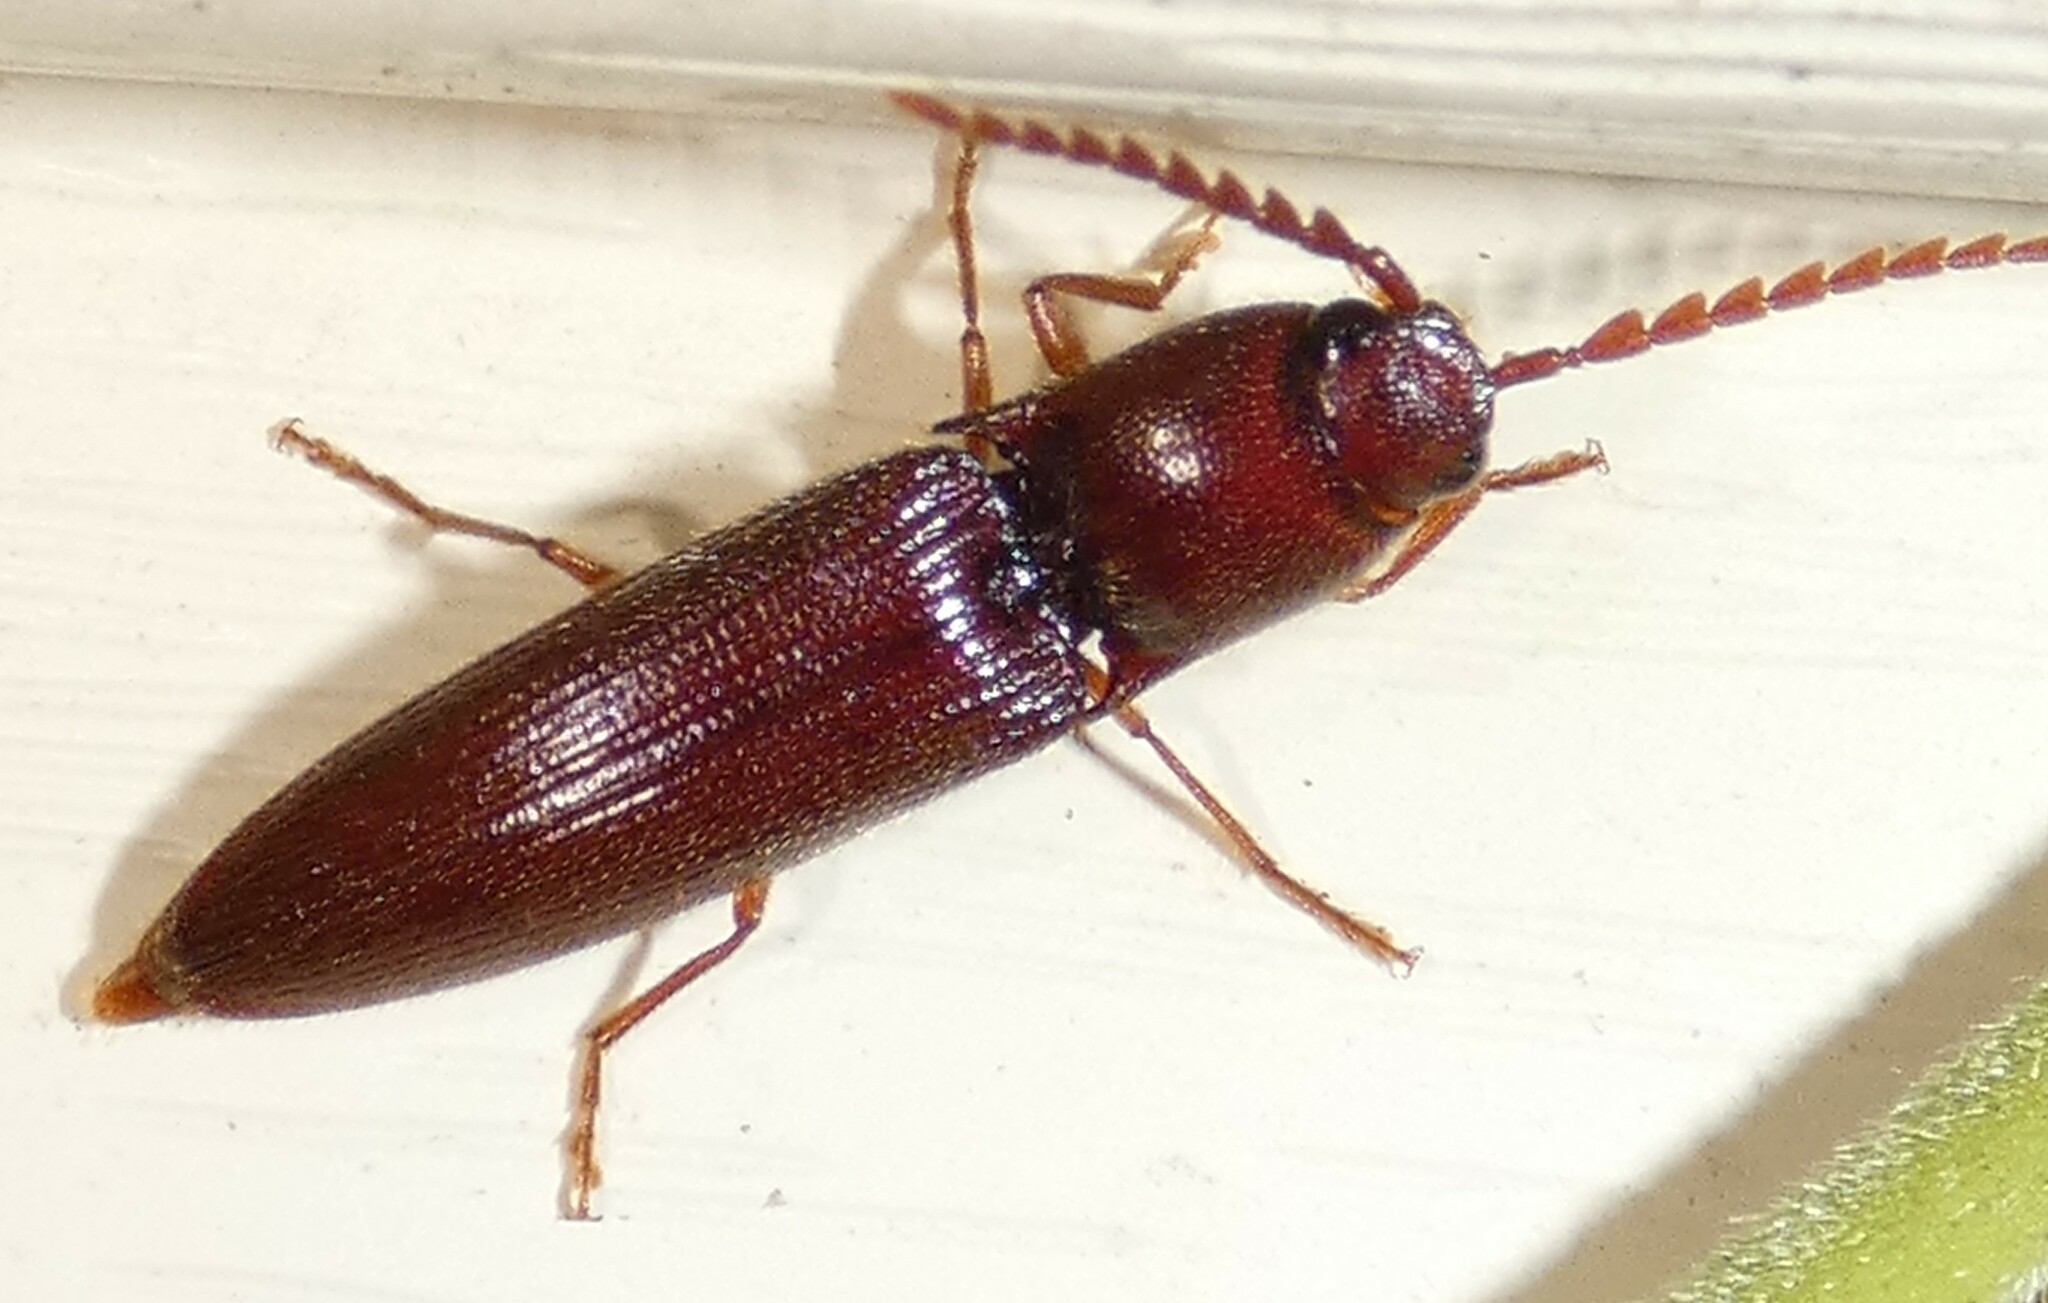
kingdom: Animalia
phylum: Arthropoda
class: Insecta
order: Coleoptera
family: Elateridae
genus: Dicrepidius
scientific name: Dicrepidius palmatus
